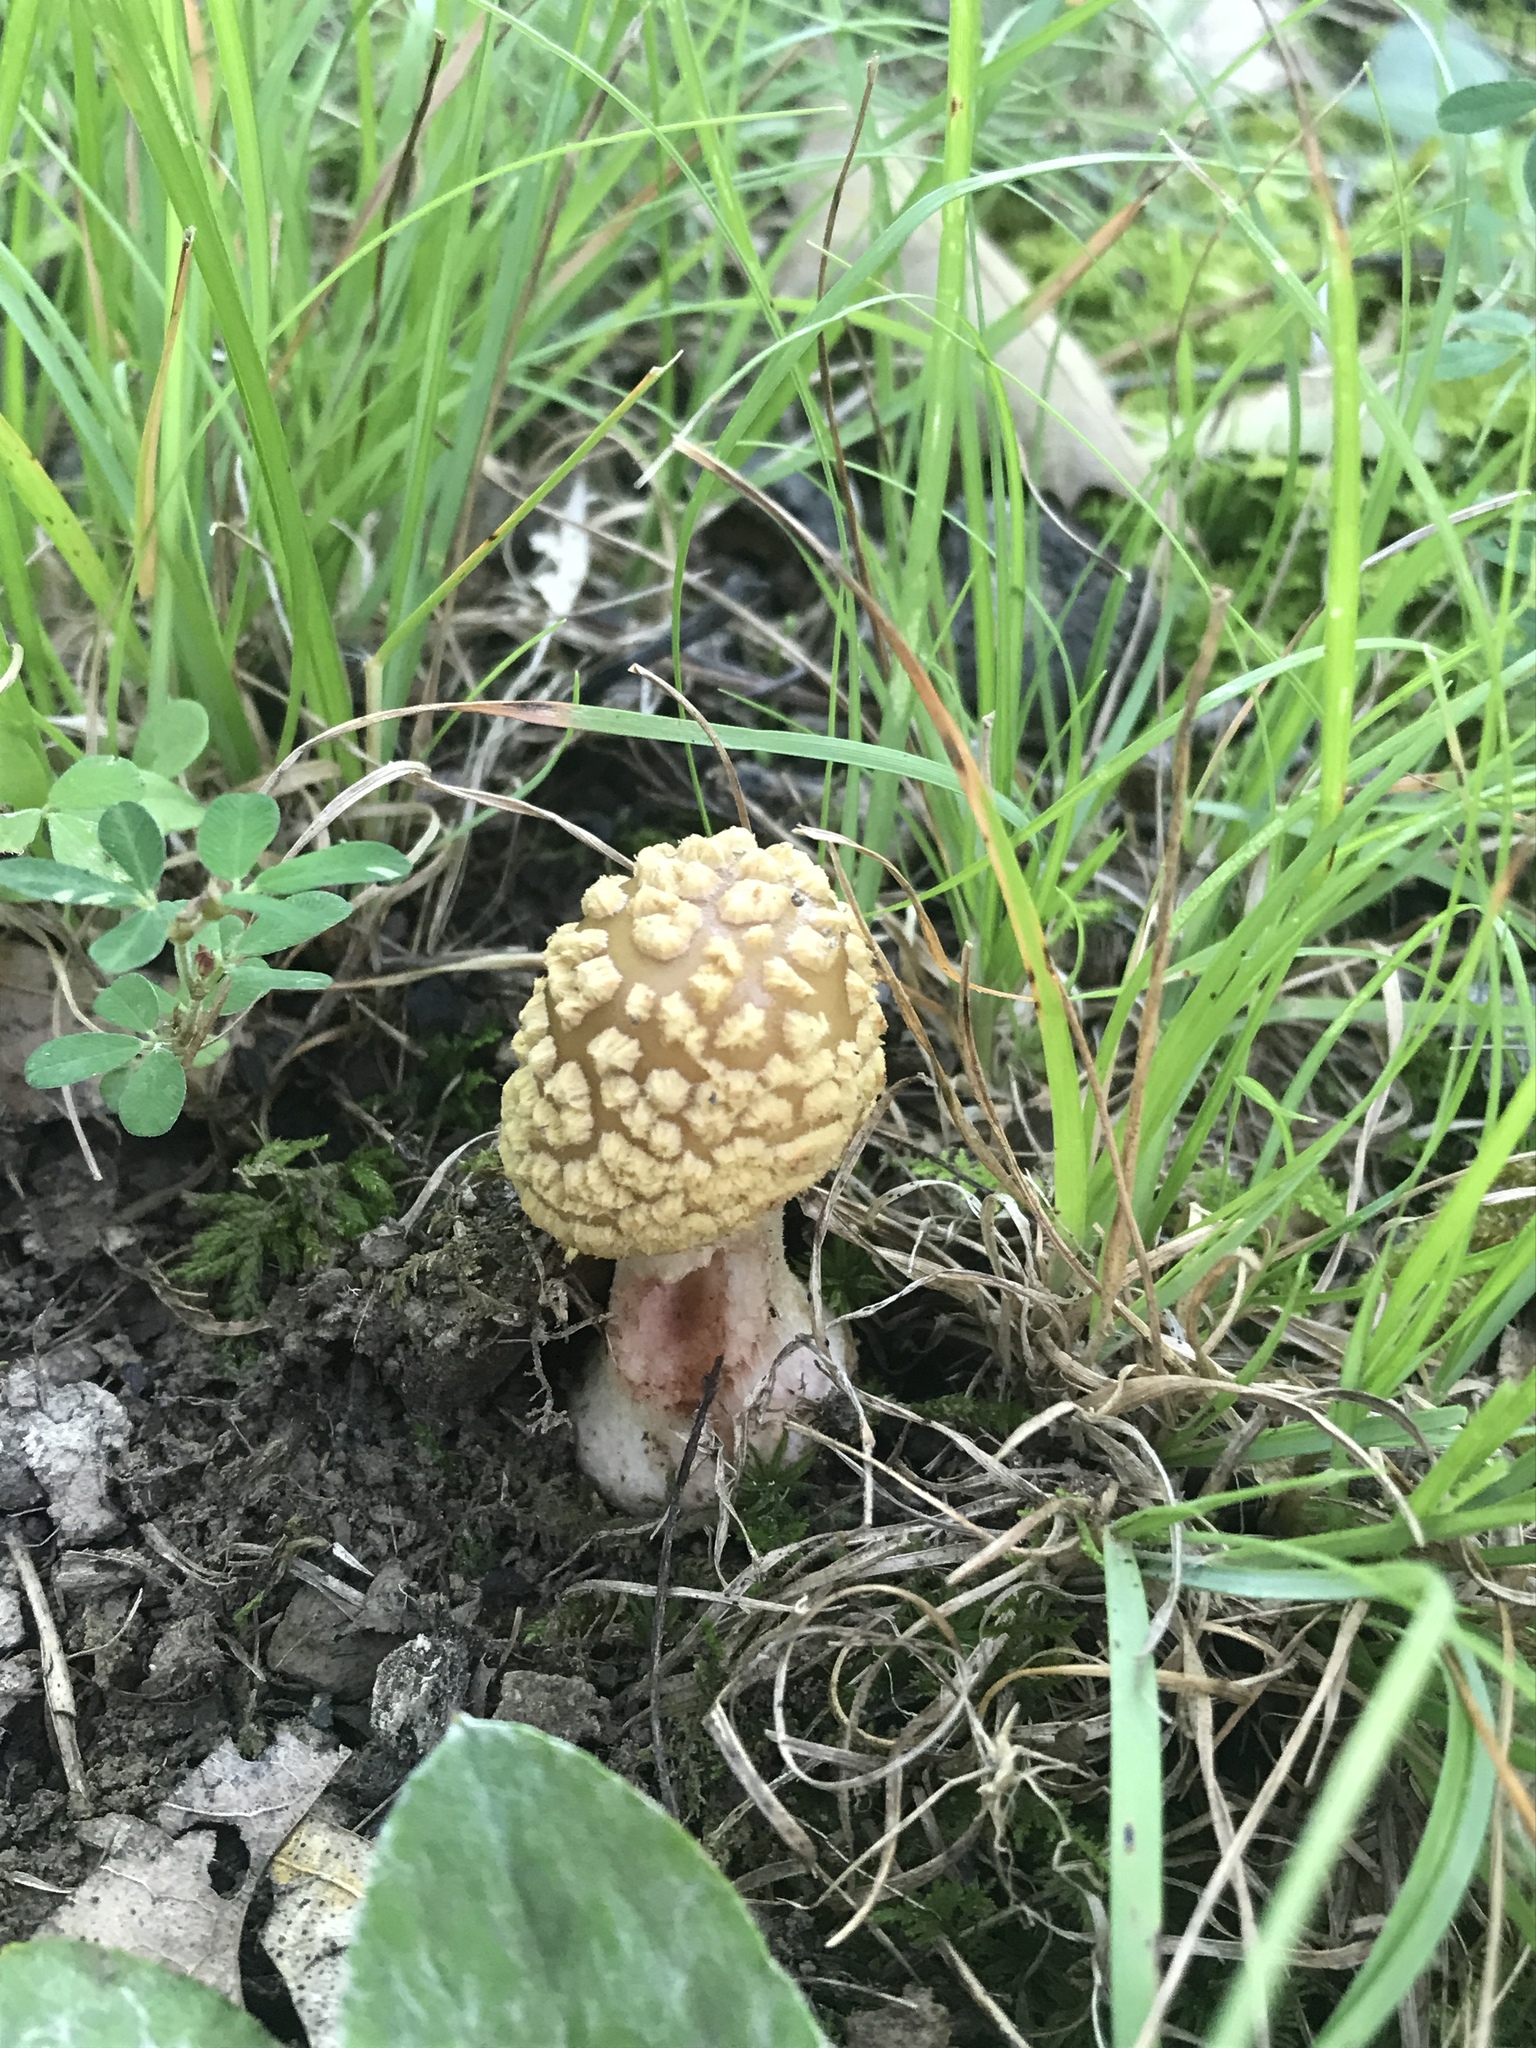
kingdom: Fungi
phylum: Basidiomycota
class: Agaricomycetes
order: Agaricales
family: Amanitaceae
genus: Amanita
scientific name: Amanita flavorubens
